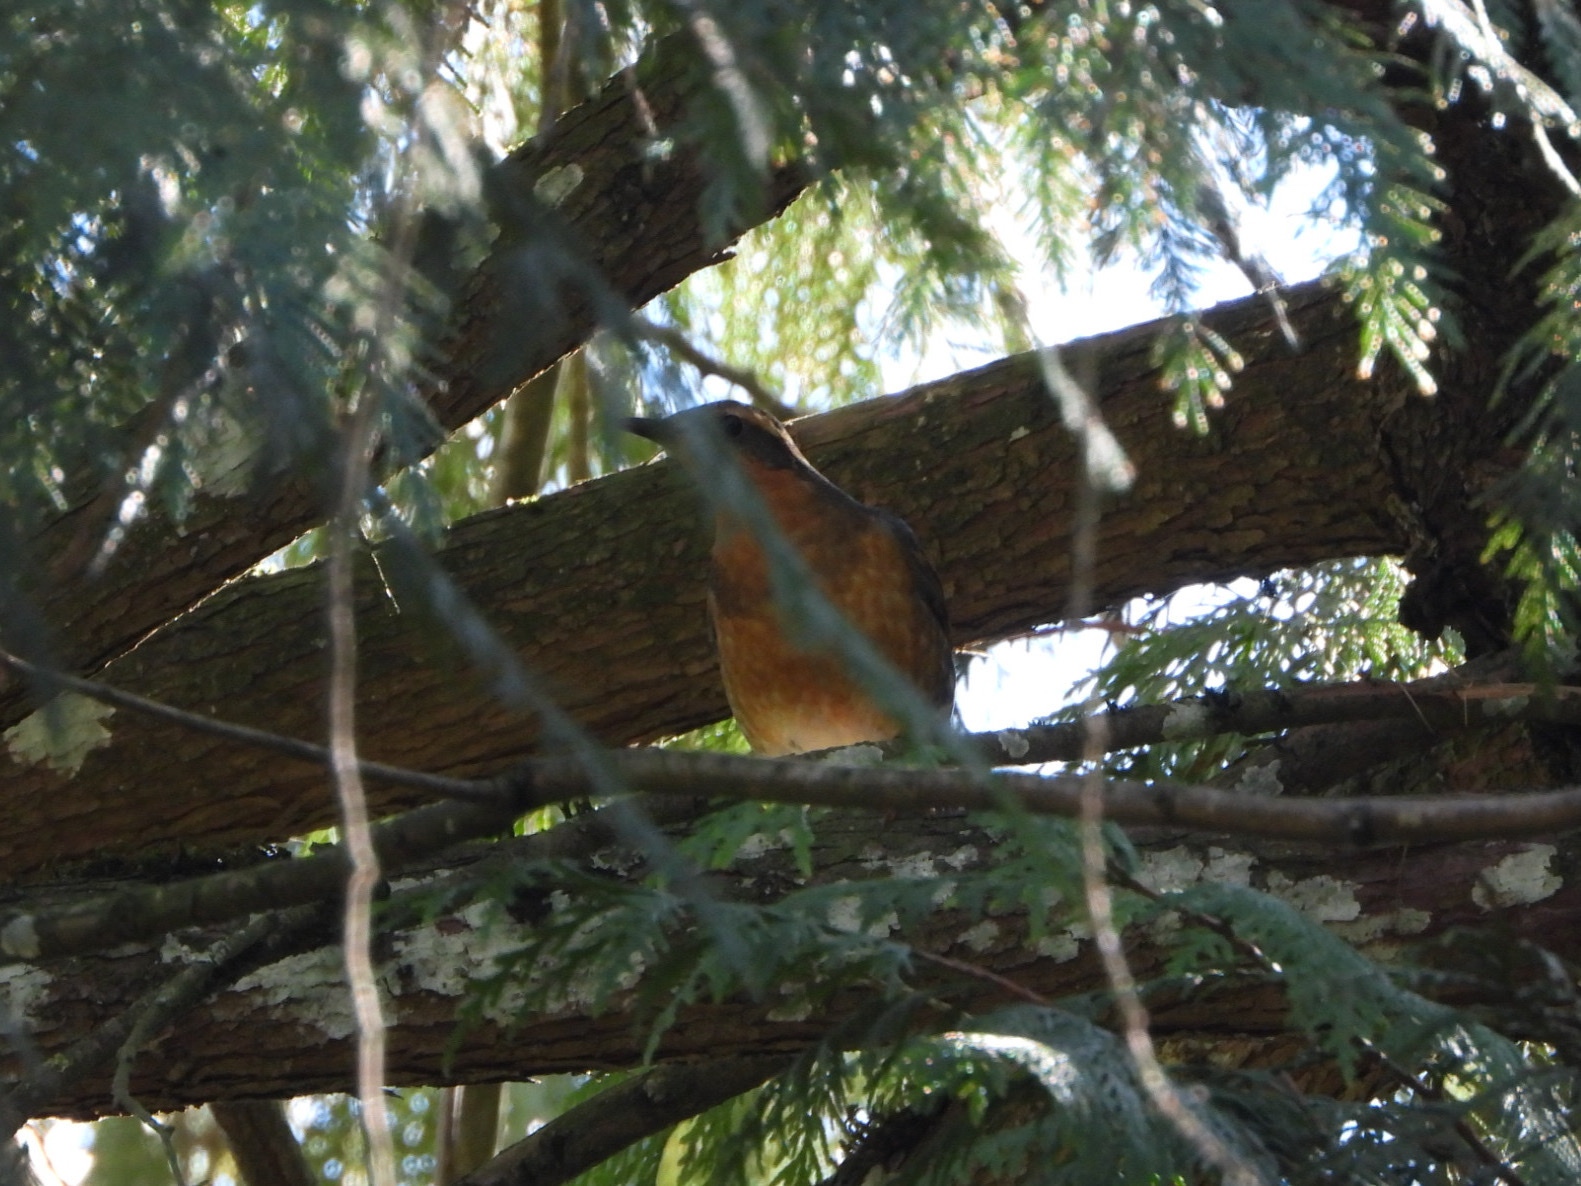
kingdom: Animalia
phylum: Chordata
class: Aves
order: Passeriformes
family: Turdidae
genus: Ixoreus
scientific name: Ixoreus naevius
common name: Varied thrush
